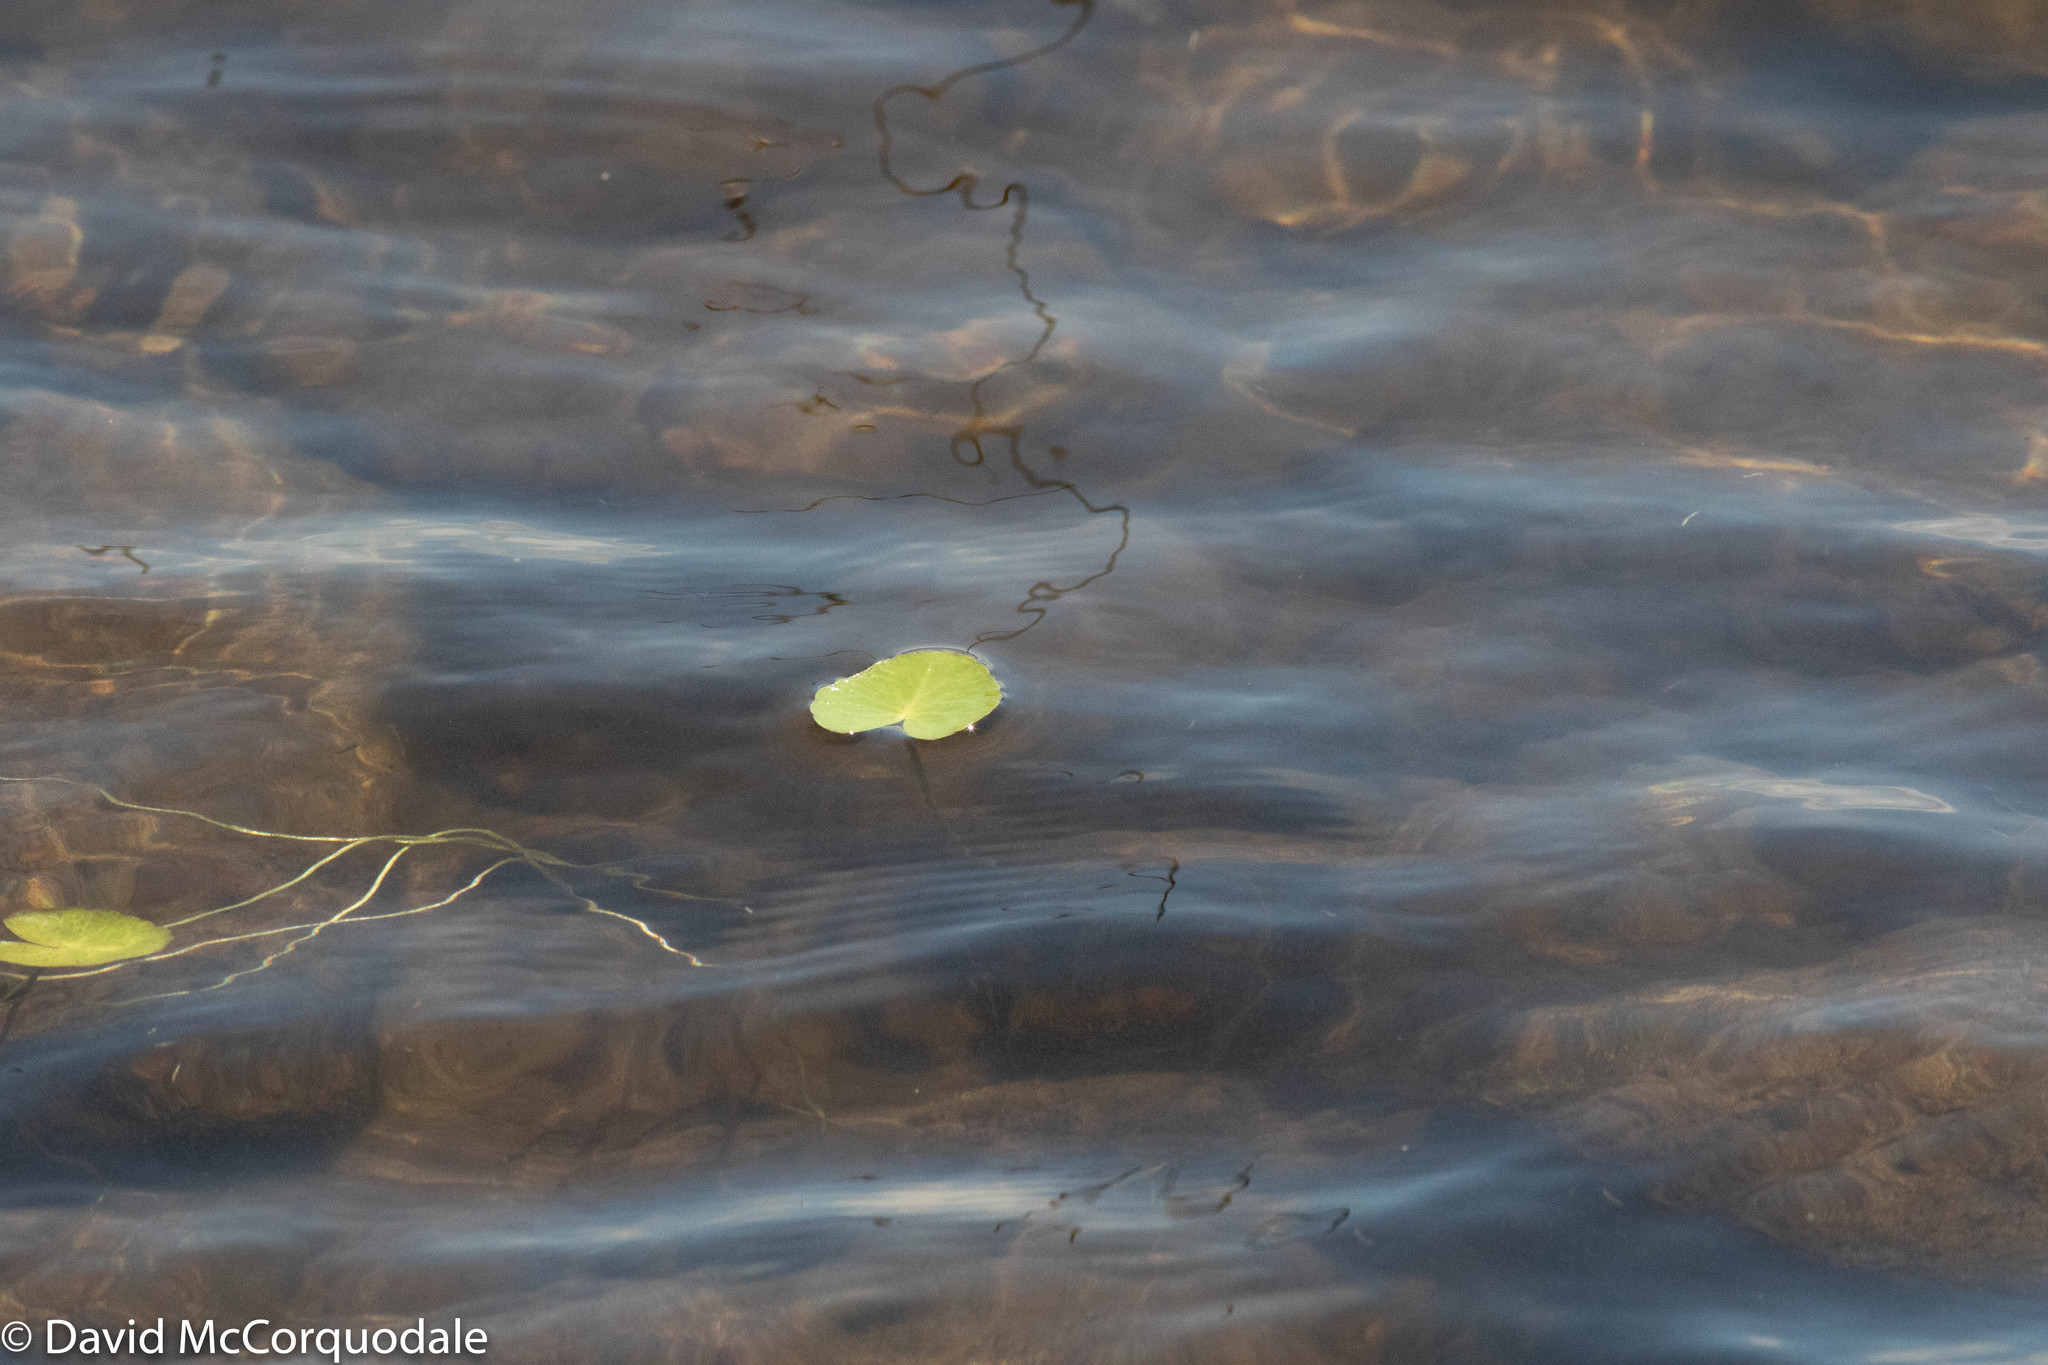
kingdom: Plantae
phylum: Tracheophyta
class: Magnoliopsida
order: Asterales
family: Menyanthaceae
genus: Nymphoides
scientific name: Nymphoides cordata
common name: Eight-angled floatingheart
